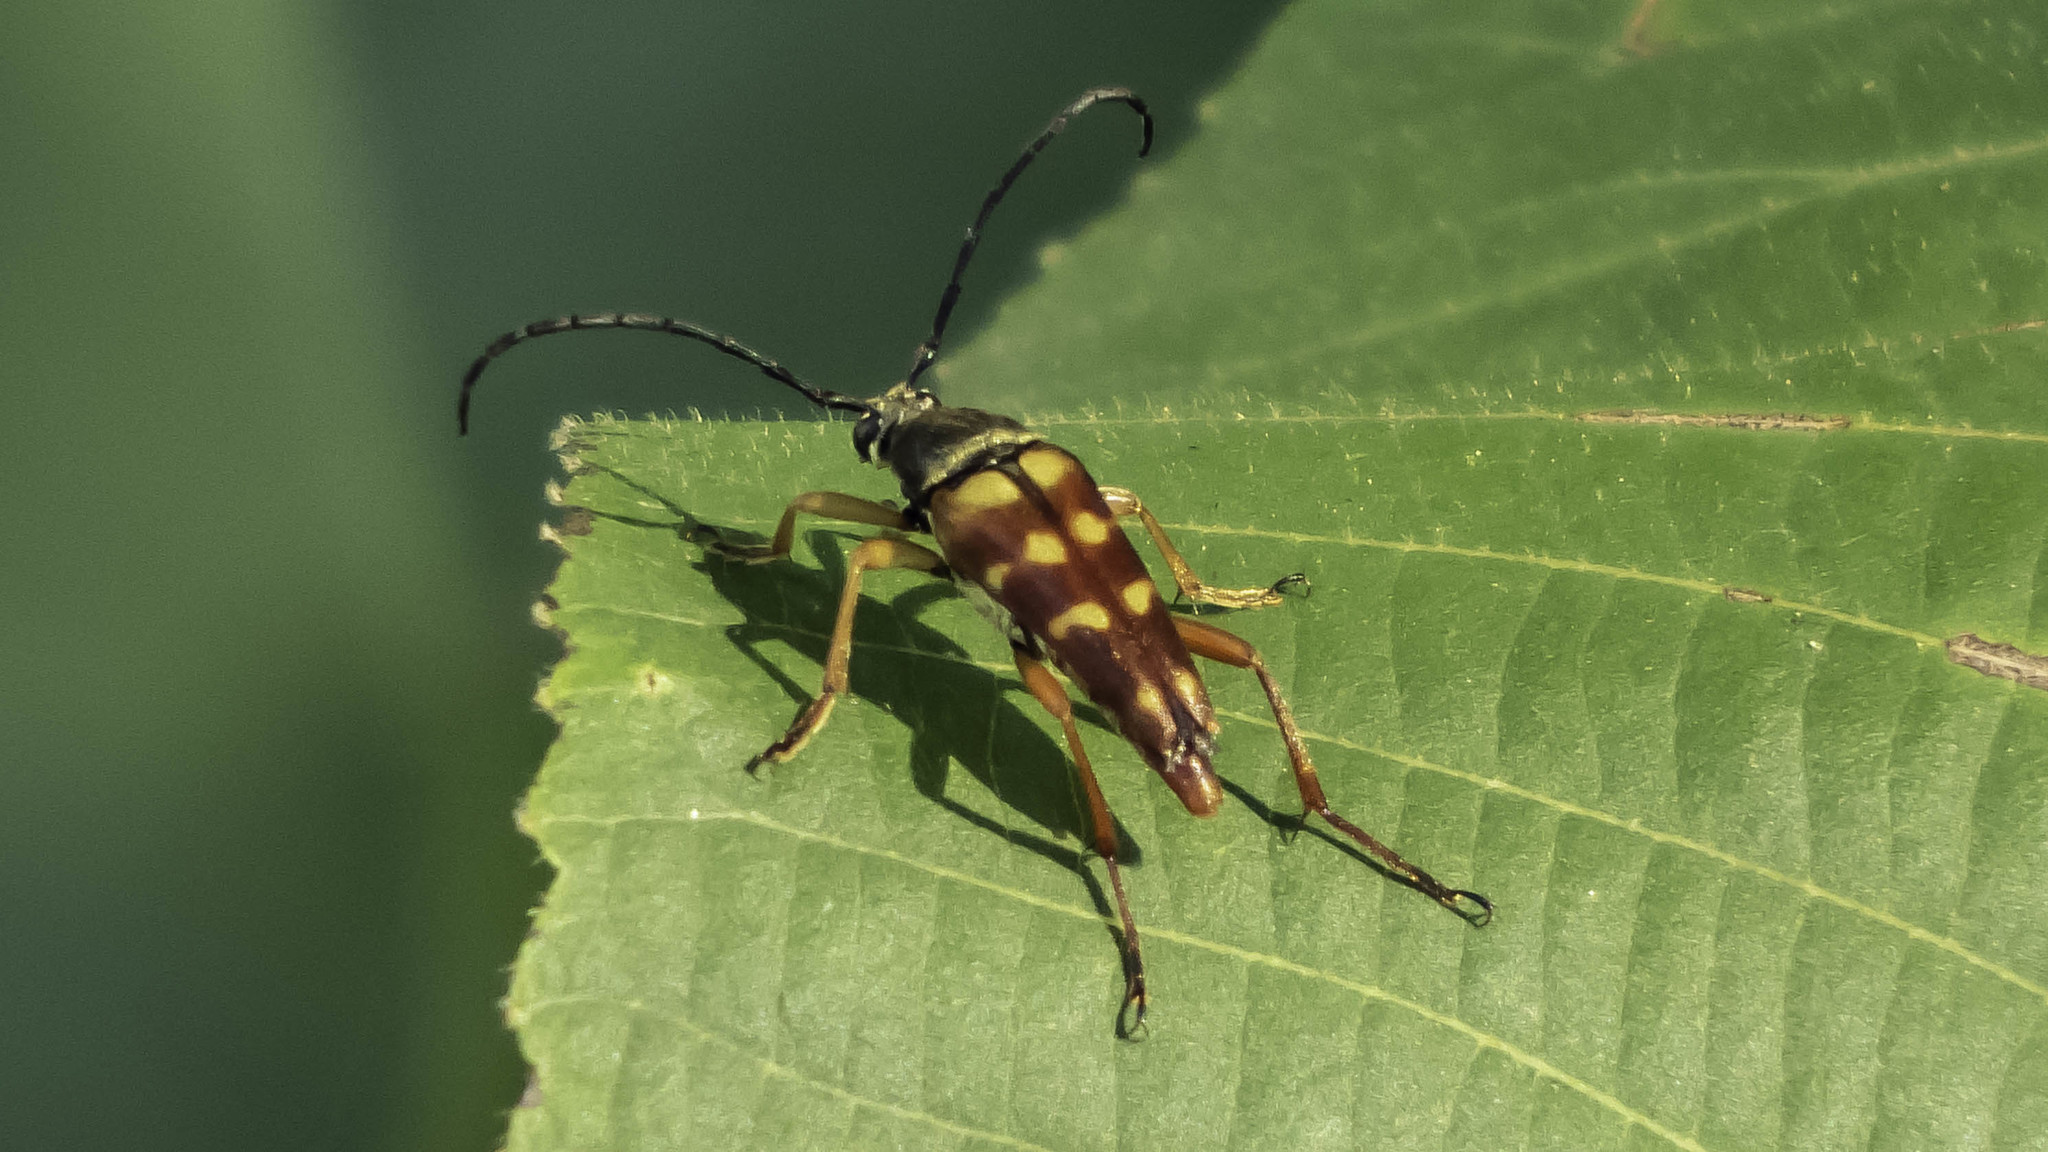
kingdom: Animalia
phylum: Arthropoda
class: Insecta
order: Coleoptera
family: Cerambycidae
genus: Typocerus
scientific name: Typocerus velutinus
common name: Banded longhorn beetle
